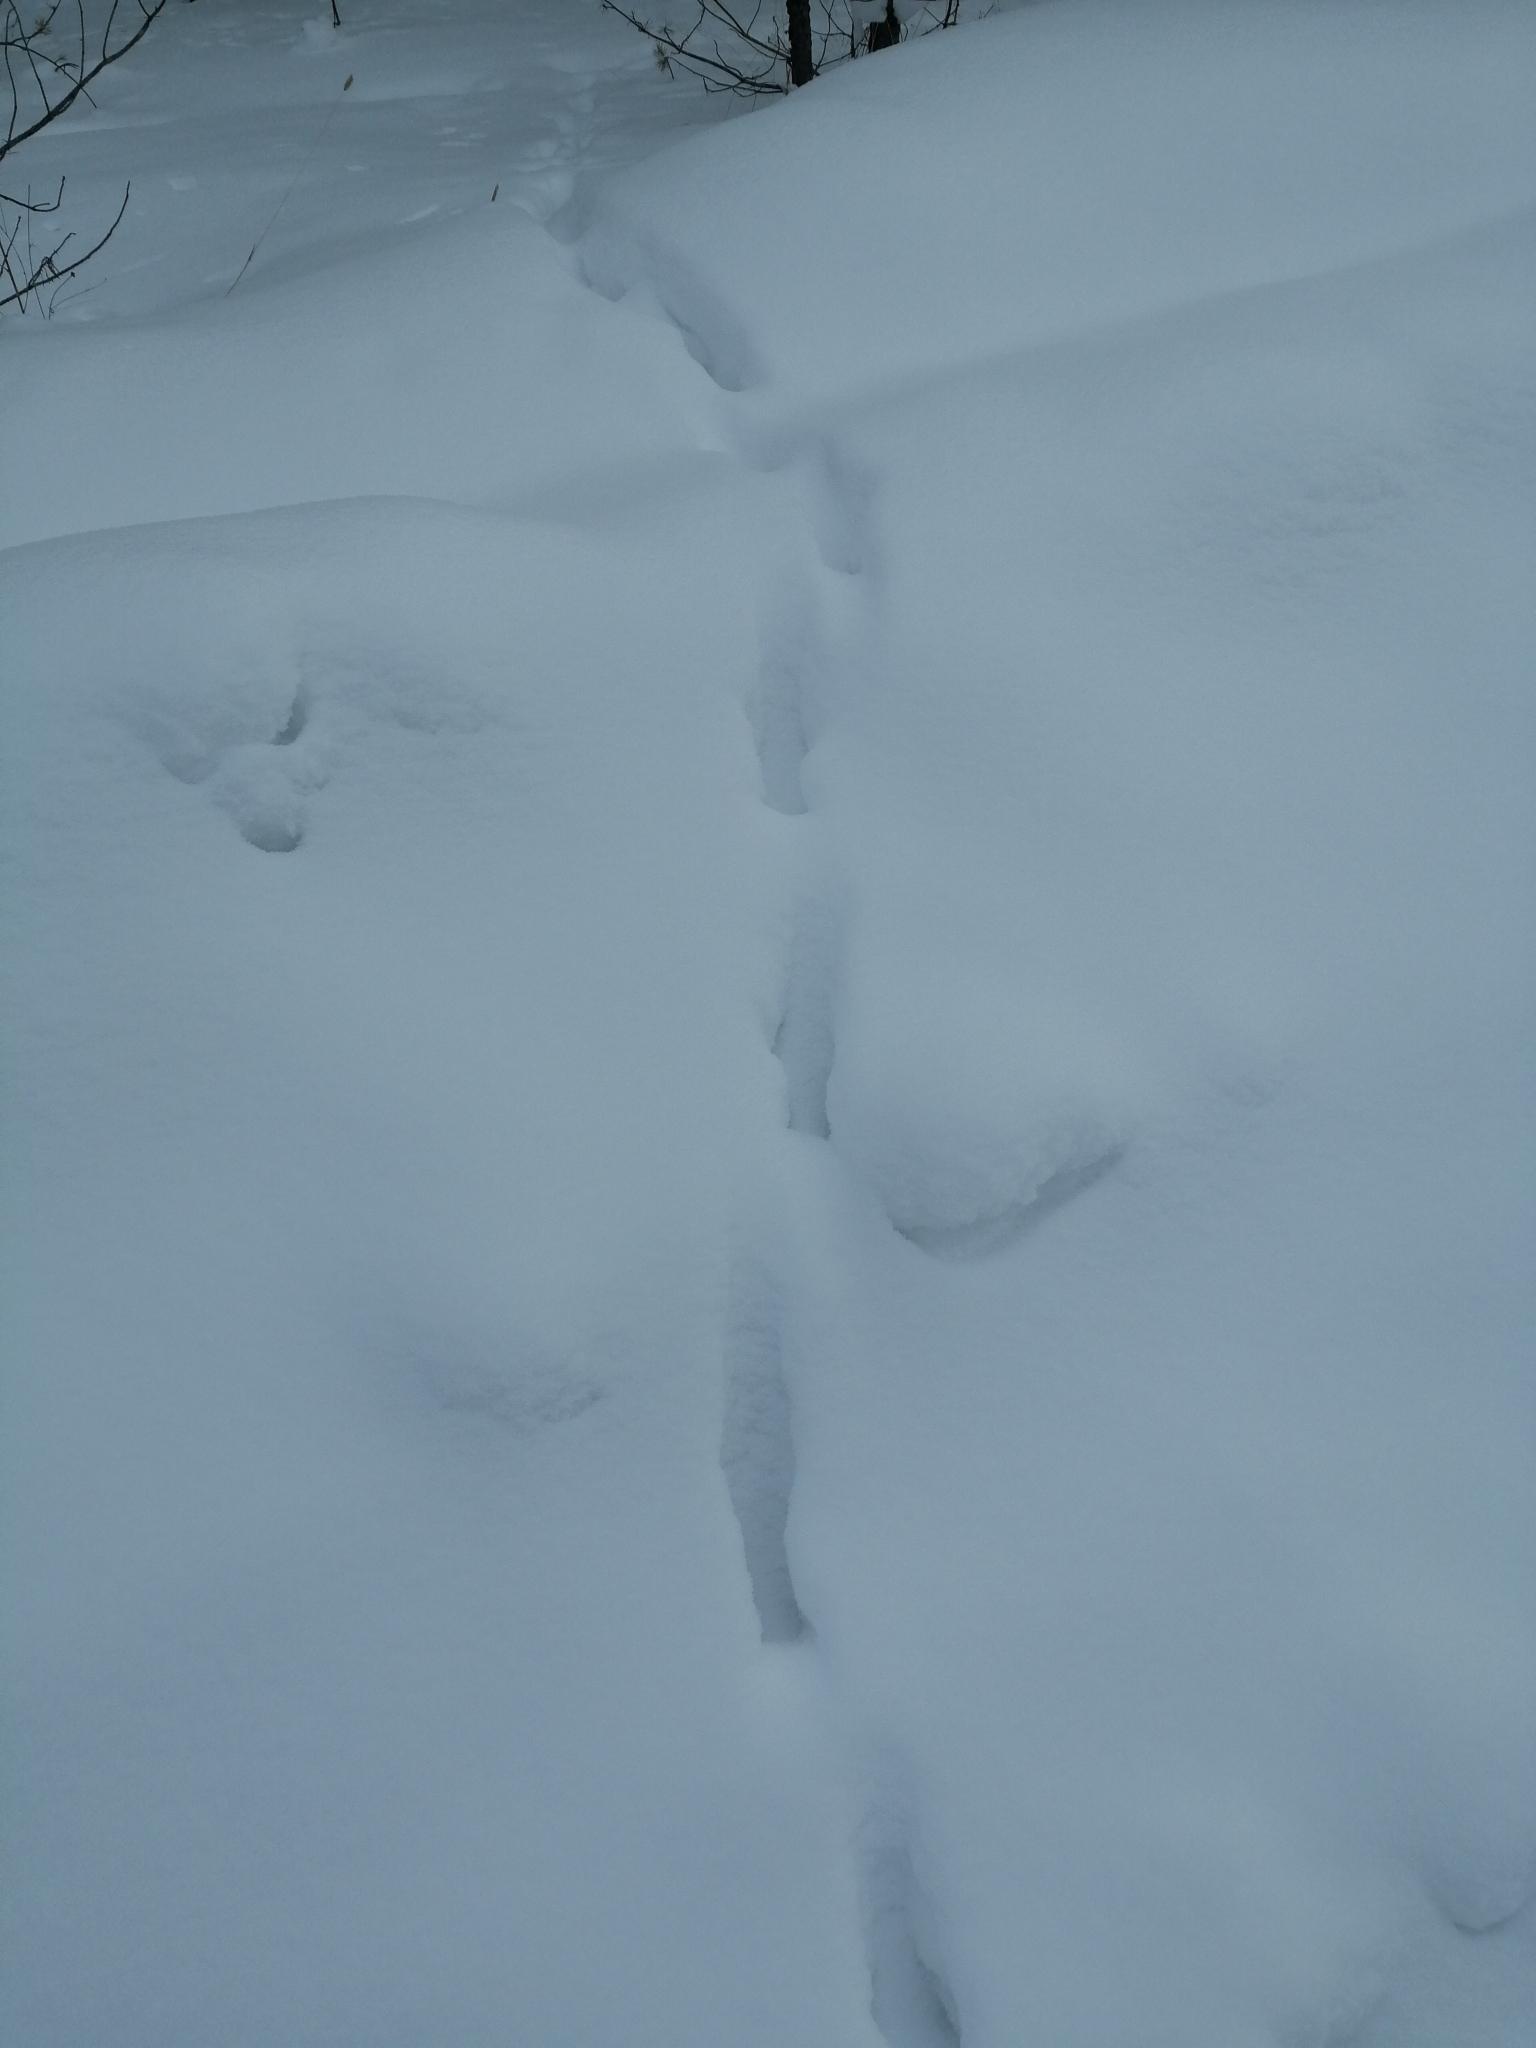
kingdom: Animalia
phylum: Chordata
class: Mammalia
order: Carnivora
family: Canidae
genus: Vulpes
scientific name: Vulpes vulpes
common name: Red fox
